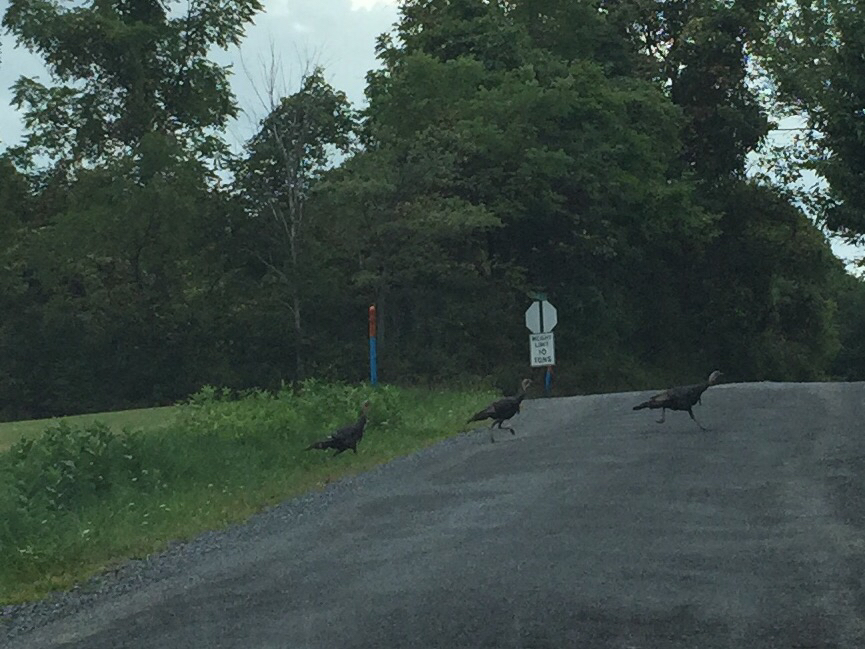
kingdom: Animalia
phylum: Chordata
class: Aves
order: Galliformes
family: Phasianidae
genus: Meleagris
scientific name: Meleagris gallopavo
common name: Wild turkey
